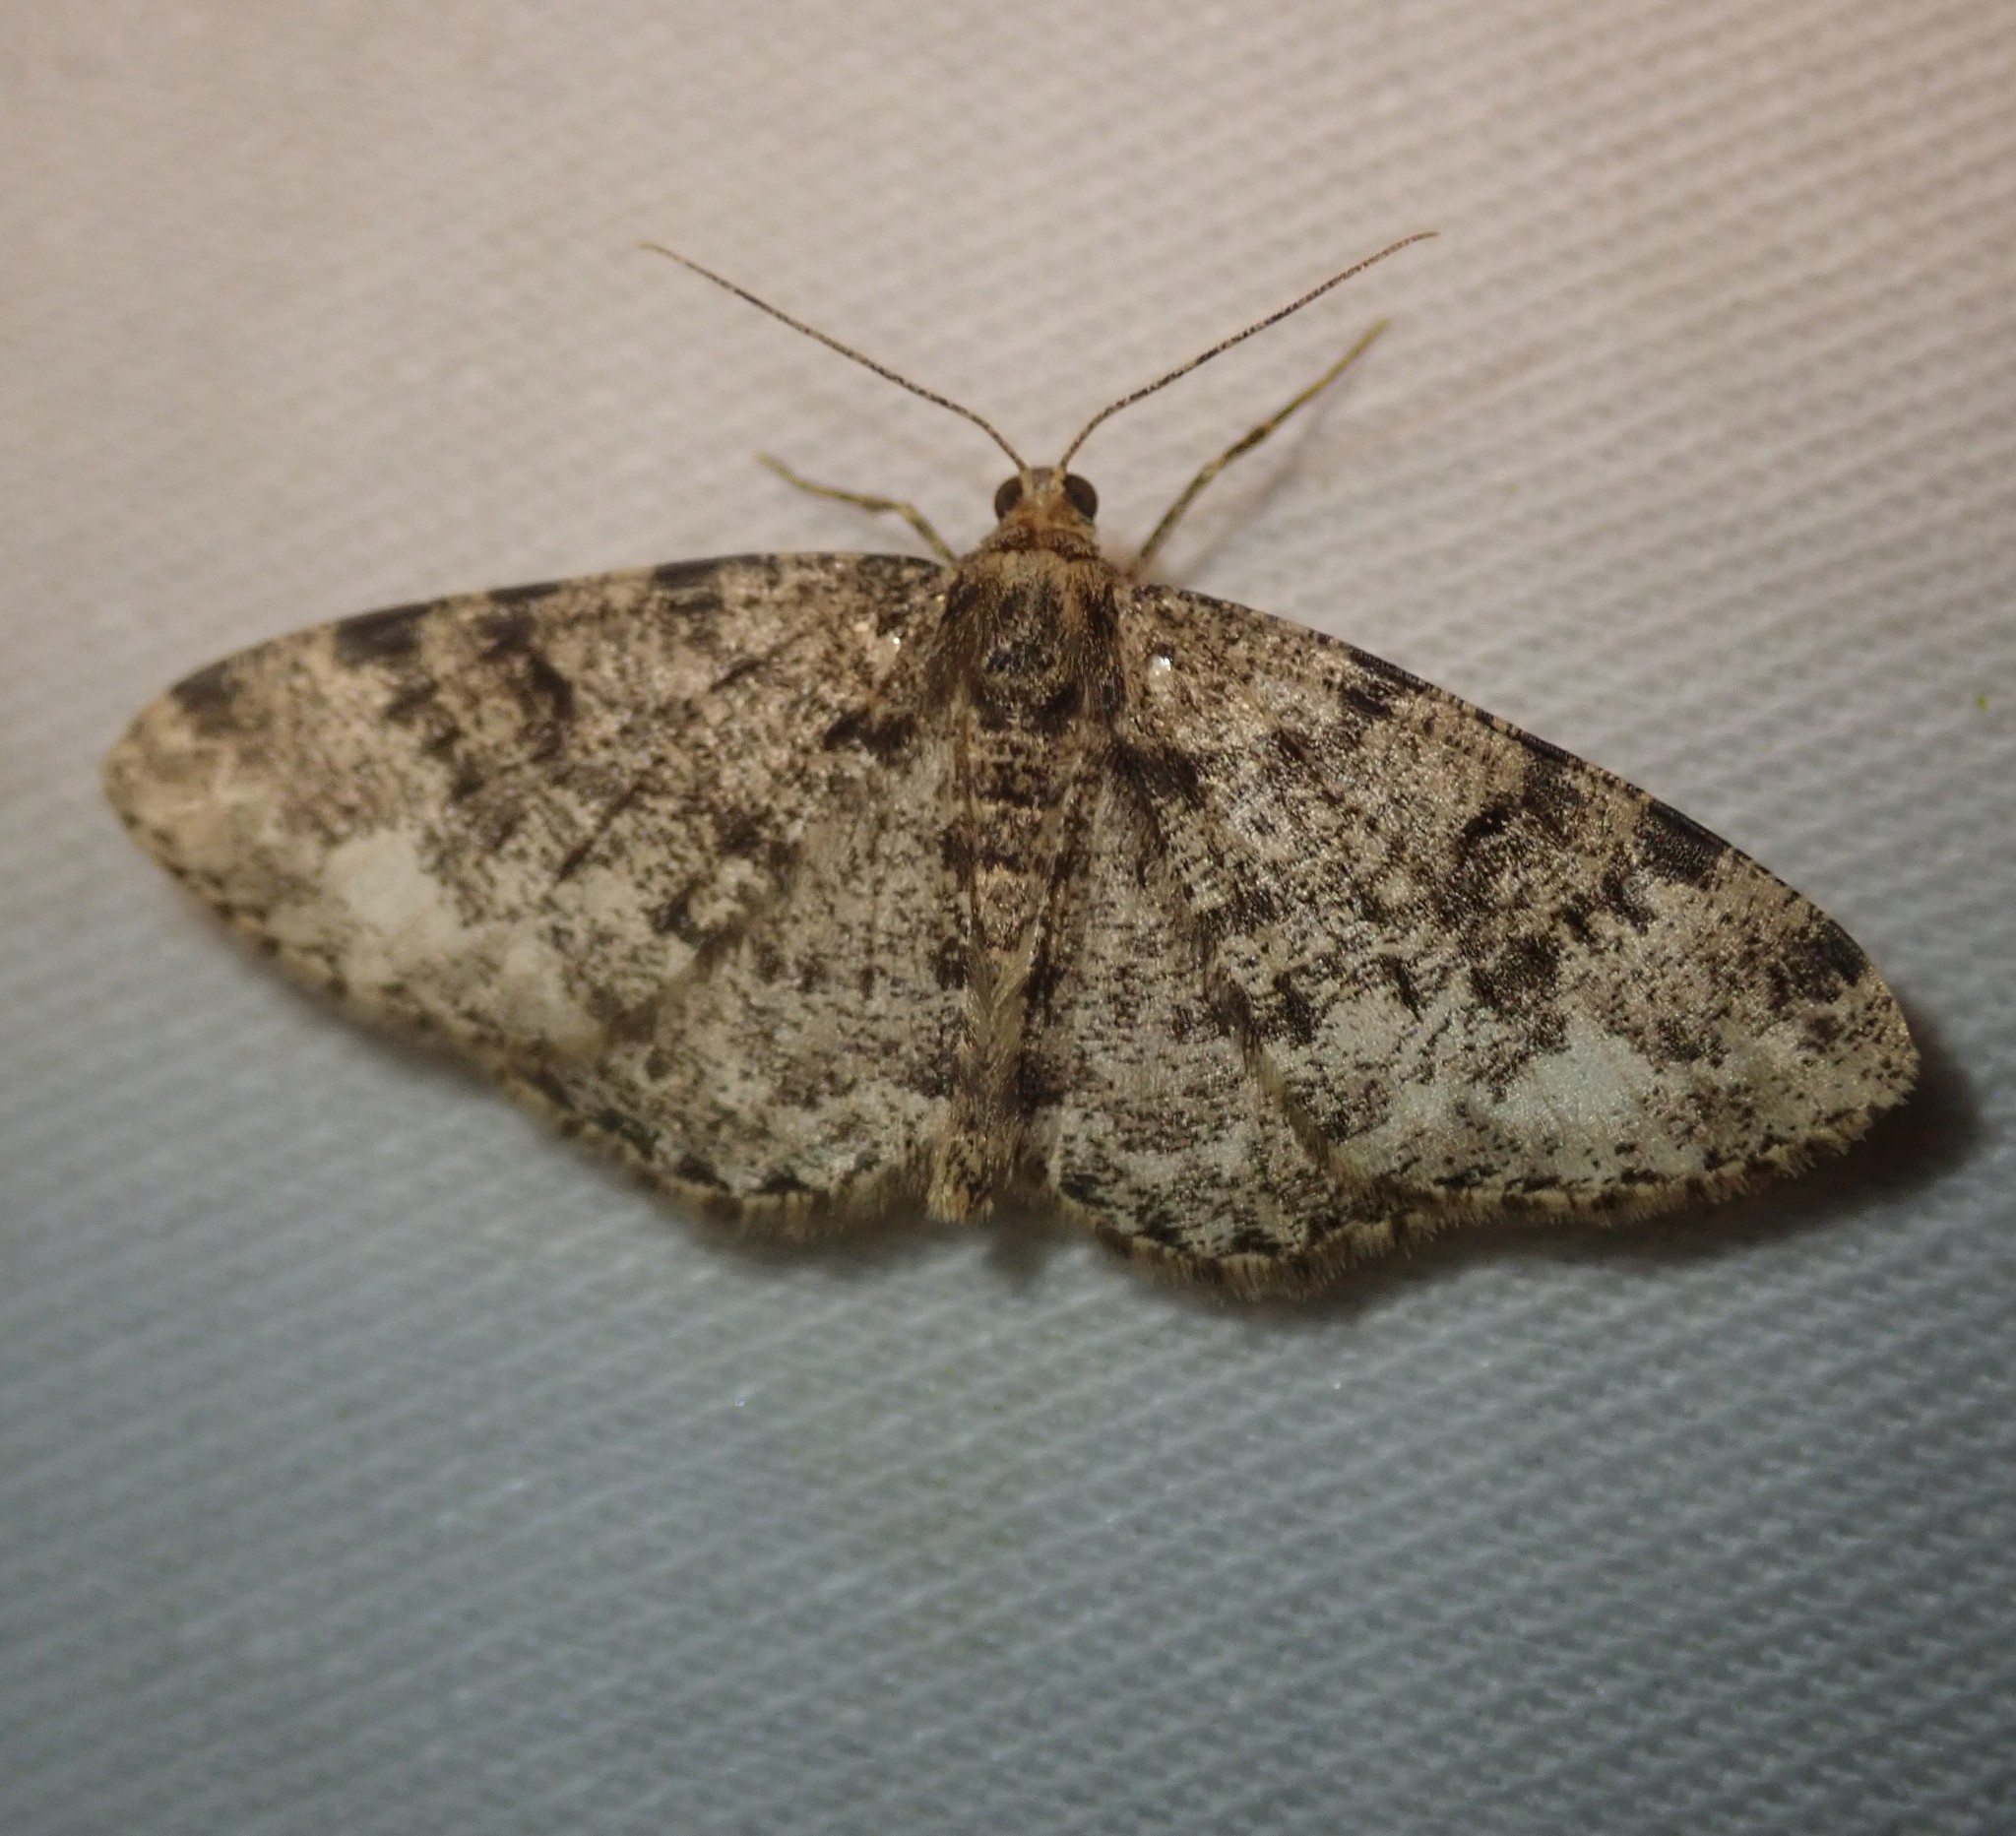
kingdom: Animalia
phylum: Arthropoda
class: Insecta
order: Lepidoptera
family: Geometridae
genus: Parectropis
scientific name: Parectropis similaria
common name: Brindled white-spot
